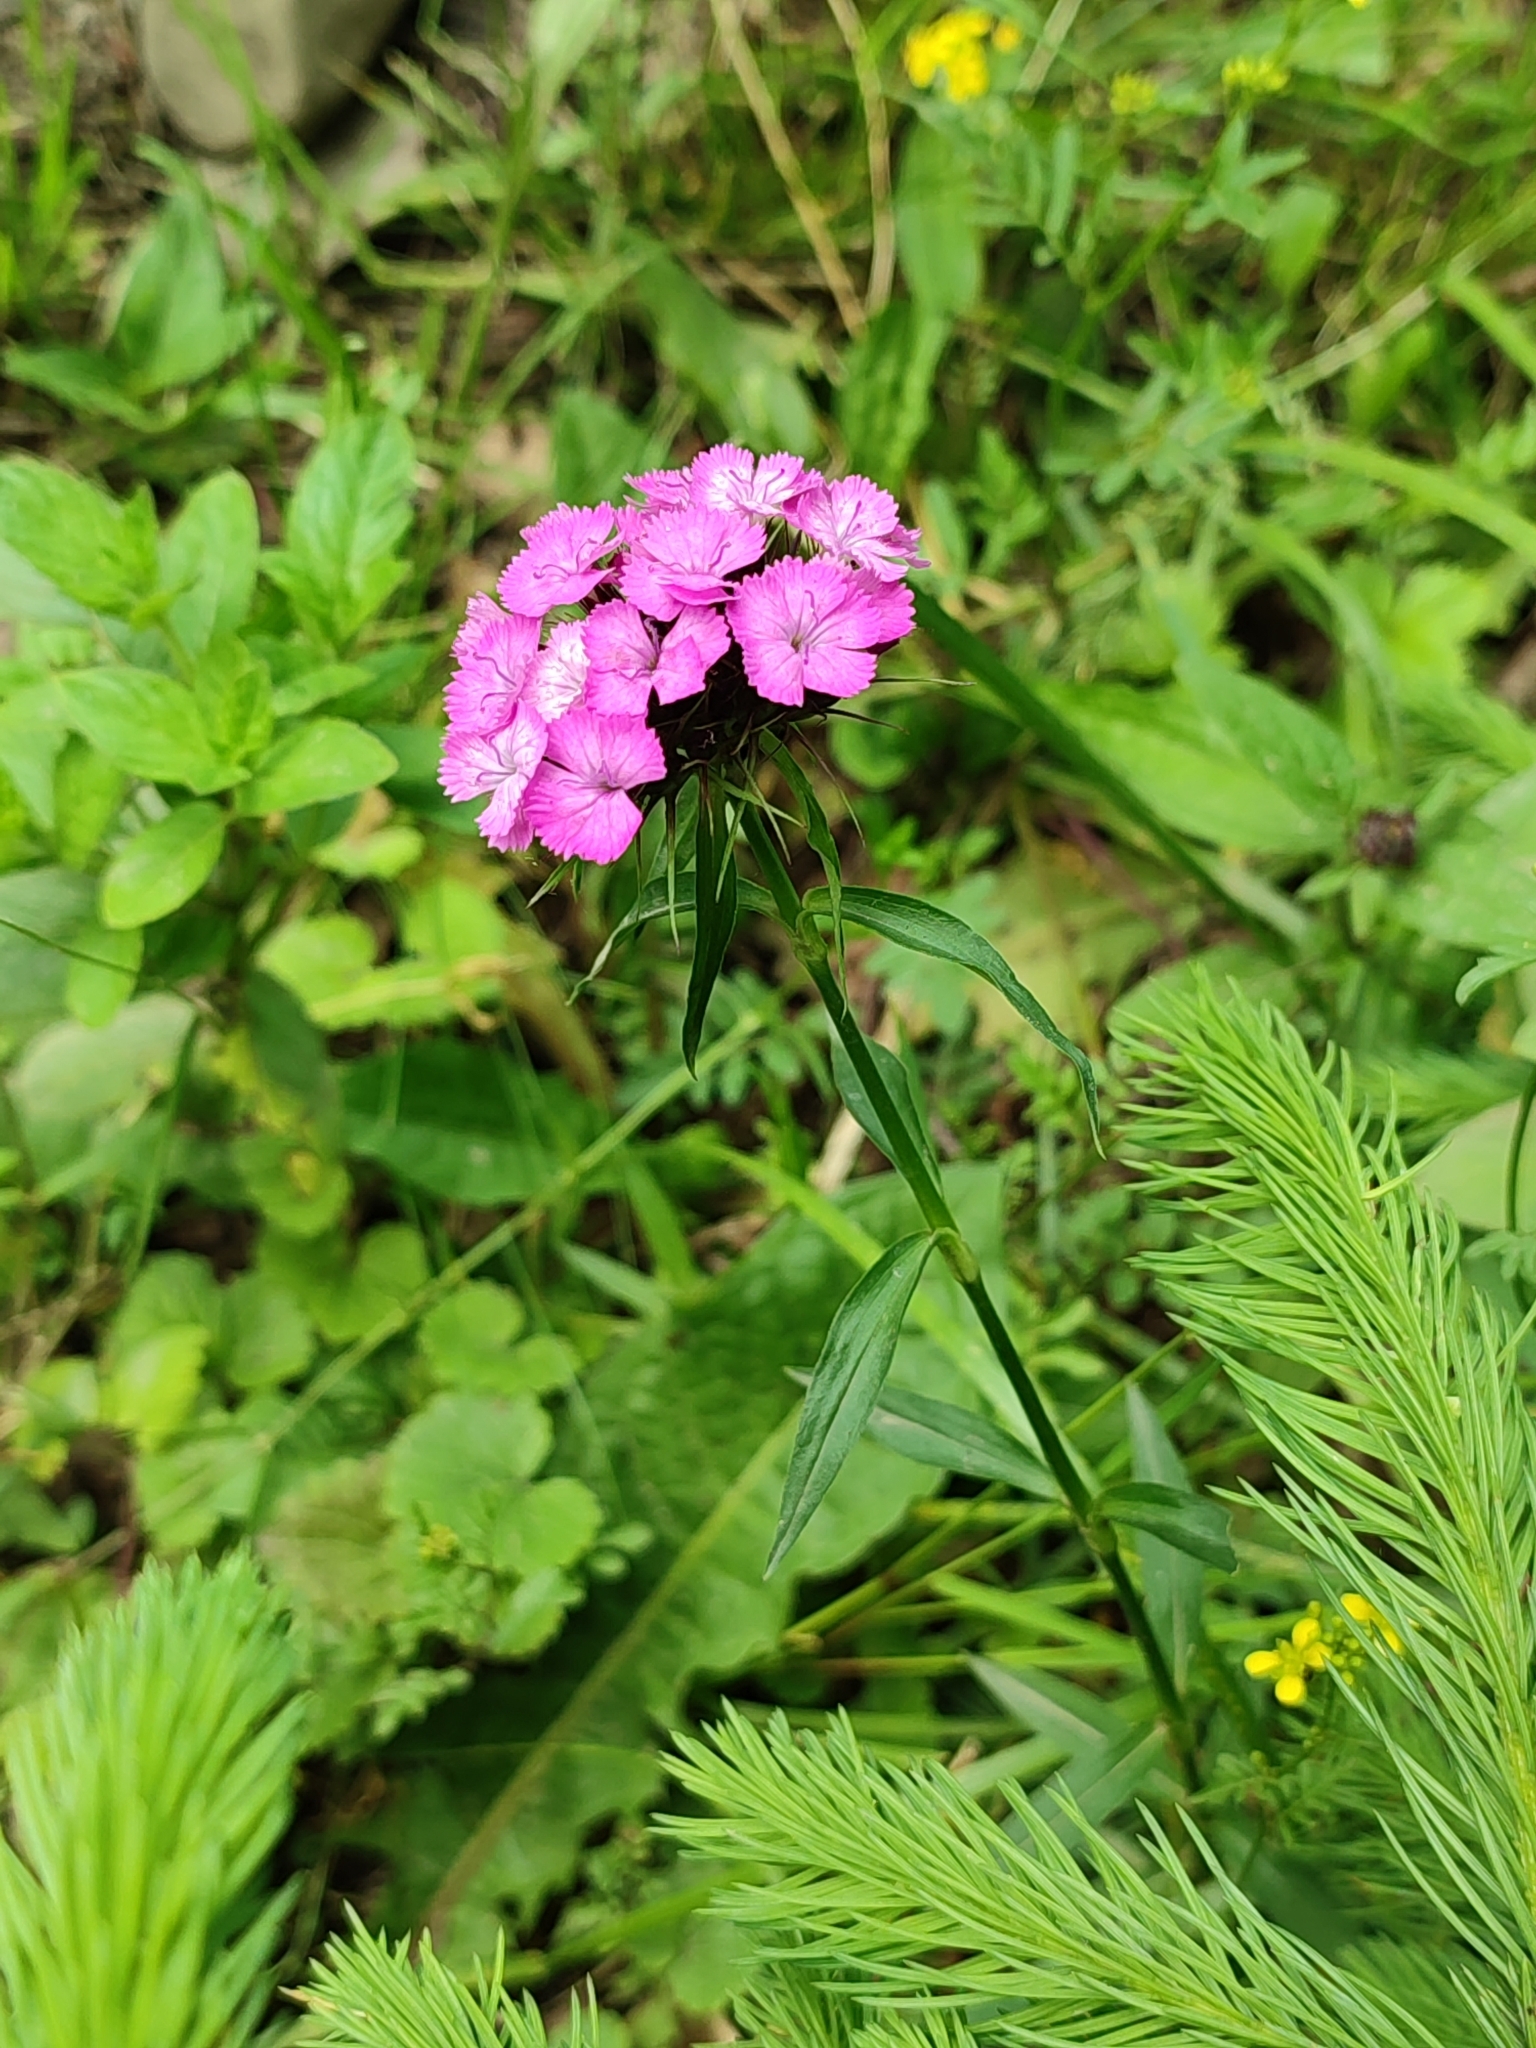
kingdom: Plantae
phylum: Tracheophyta
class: Magnoliopsida
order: Caryophyllales
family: Caryophyllaceae
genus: Dianthus
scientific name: Dianthus barbatus
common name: Sweet-william
